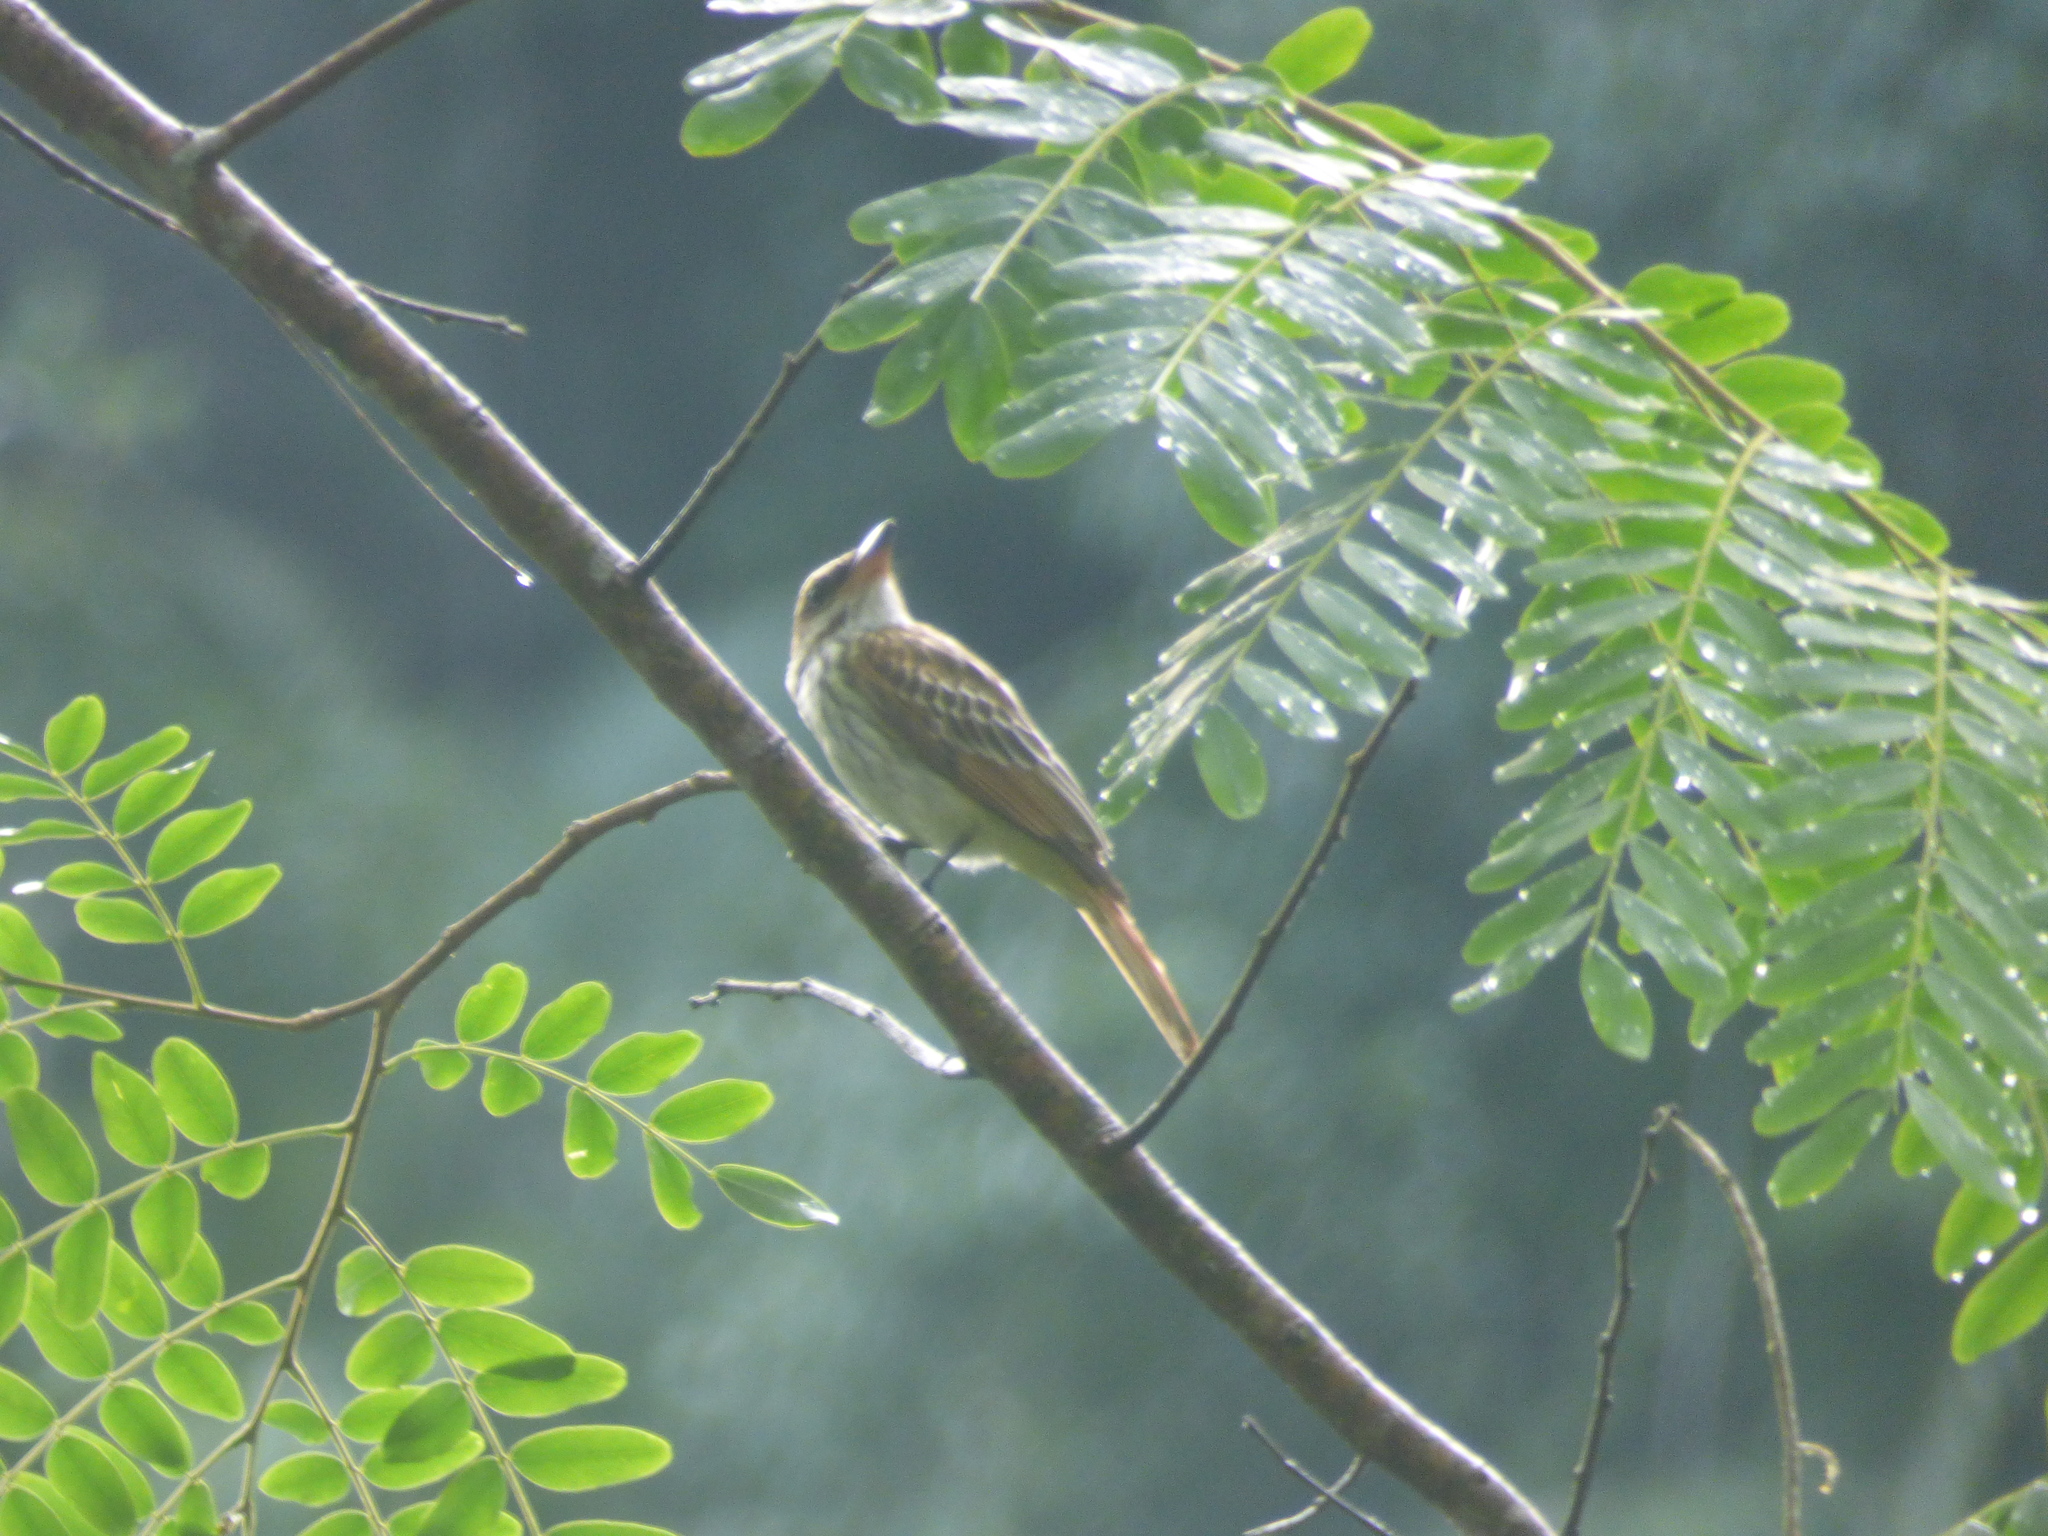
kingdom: Animalia
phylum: Chordata
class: Aves
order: Passeriformes
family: Tyrannidae
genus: Myiodynastes
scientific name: Myiodynastes maculatus
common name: Streaked flycatcher
